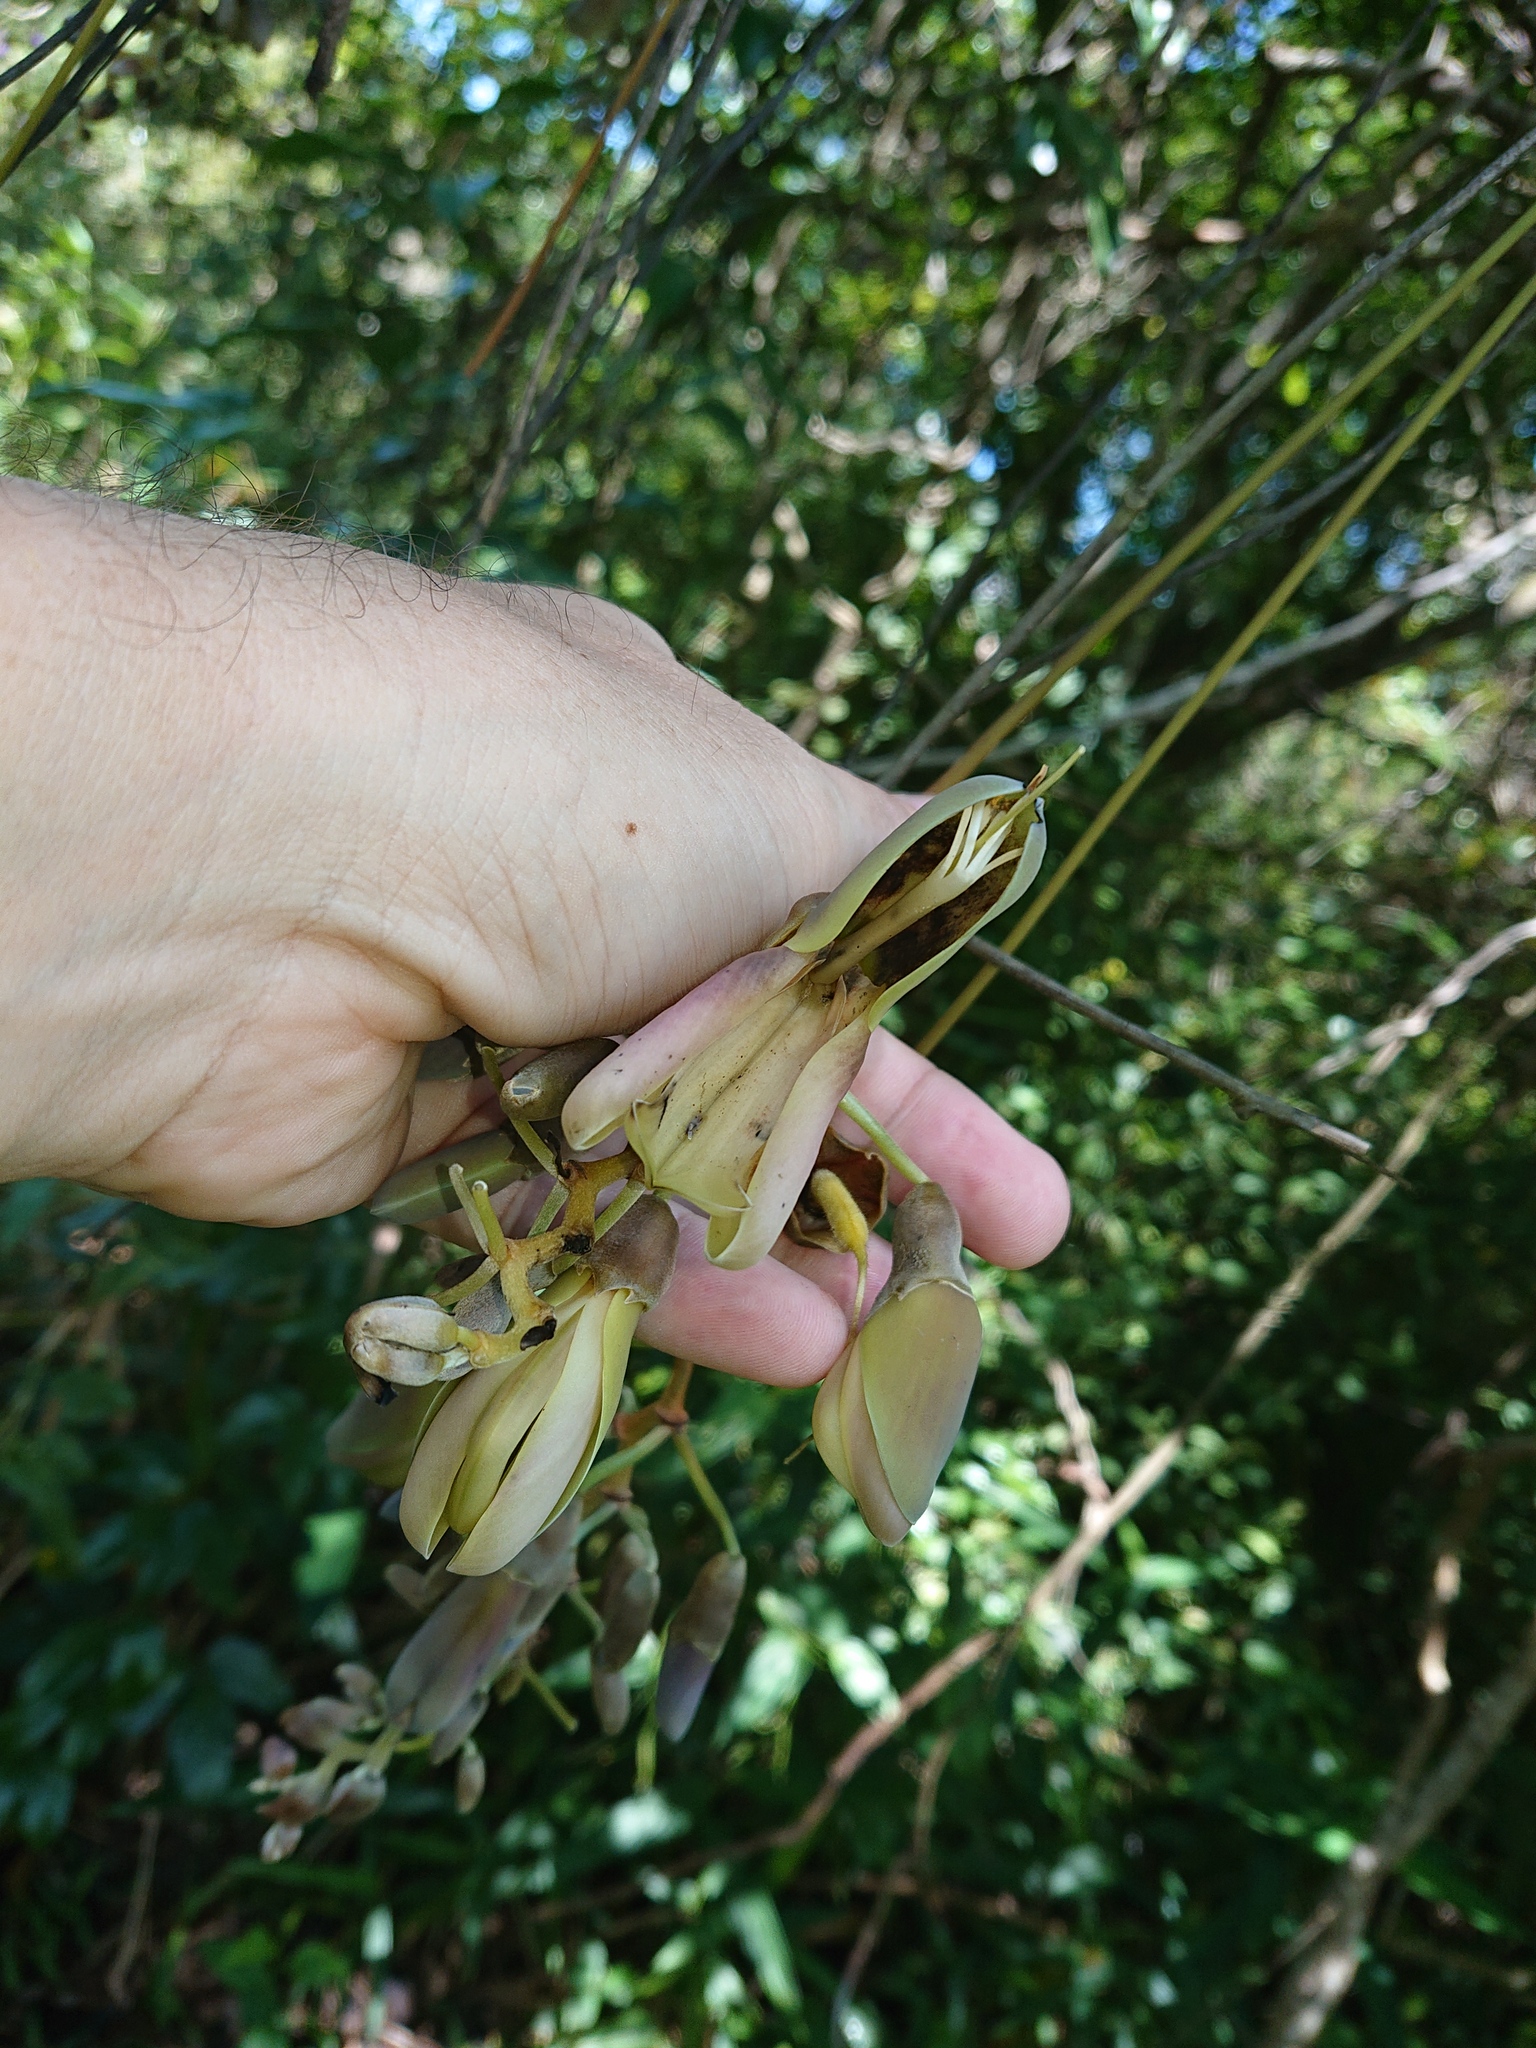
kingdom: Plantae
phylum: Tracheophyta
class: Magnoliopsida
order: Fabales
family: Fabaceae
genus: Mucuna
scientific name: Mucuna urens
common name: Red hamburger bean
